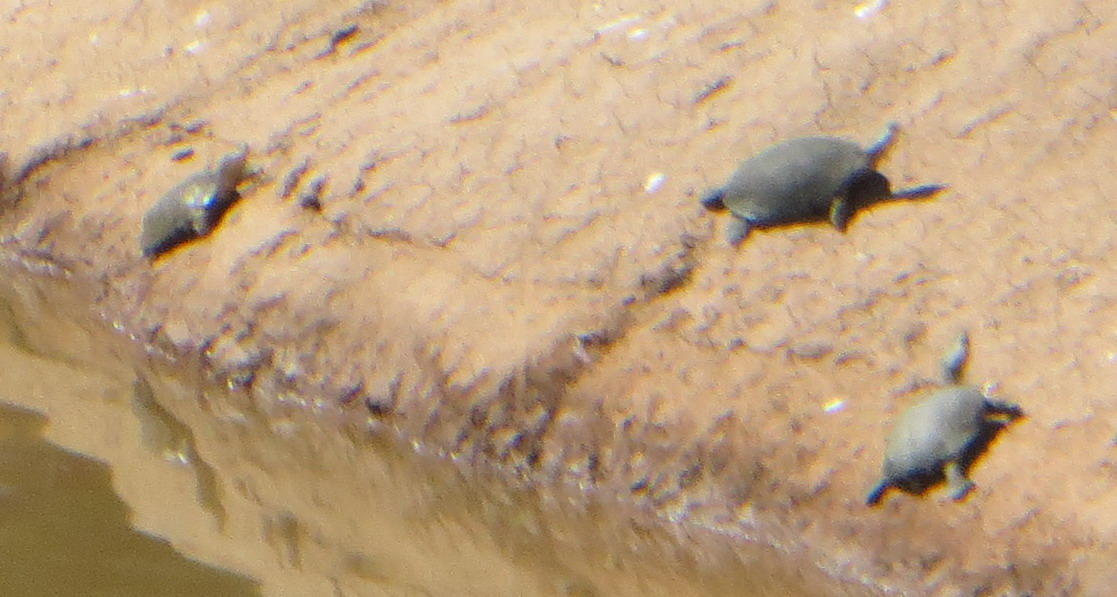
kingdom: Animalia
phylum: Chordata
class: Testudines
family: Pelomedusidae
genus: Pelomedusa
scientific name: Pelomedusa galeata
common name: South african helmeted terrapin
